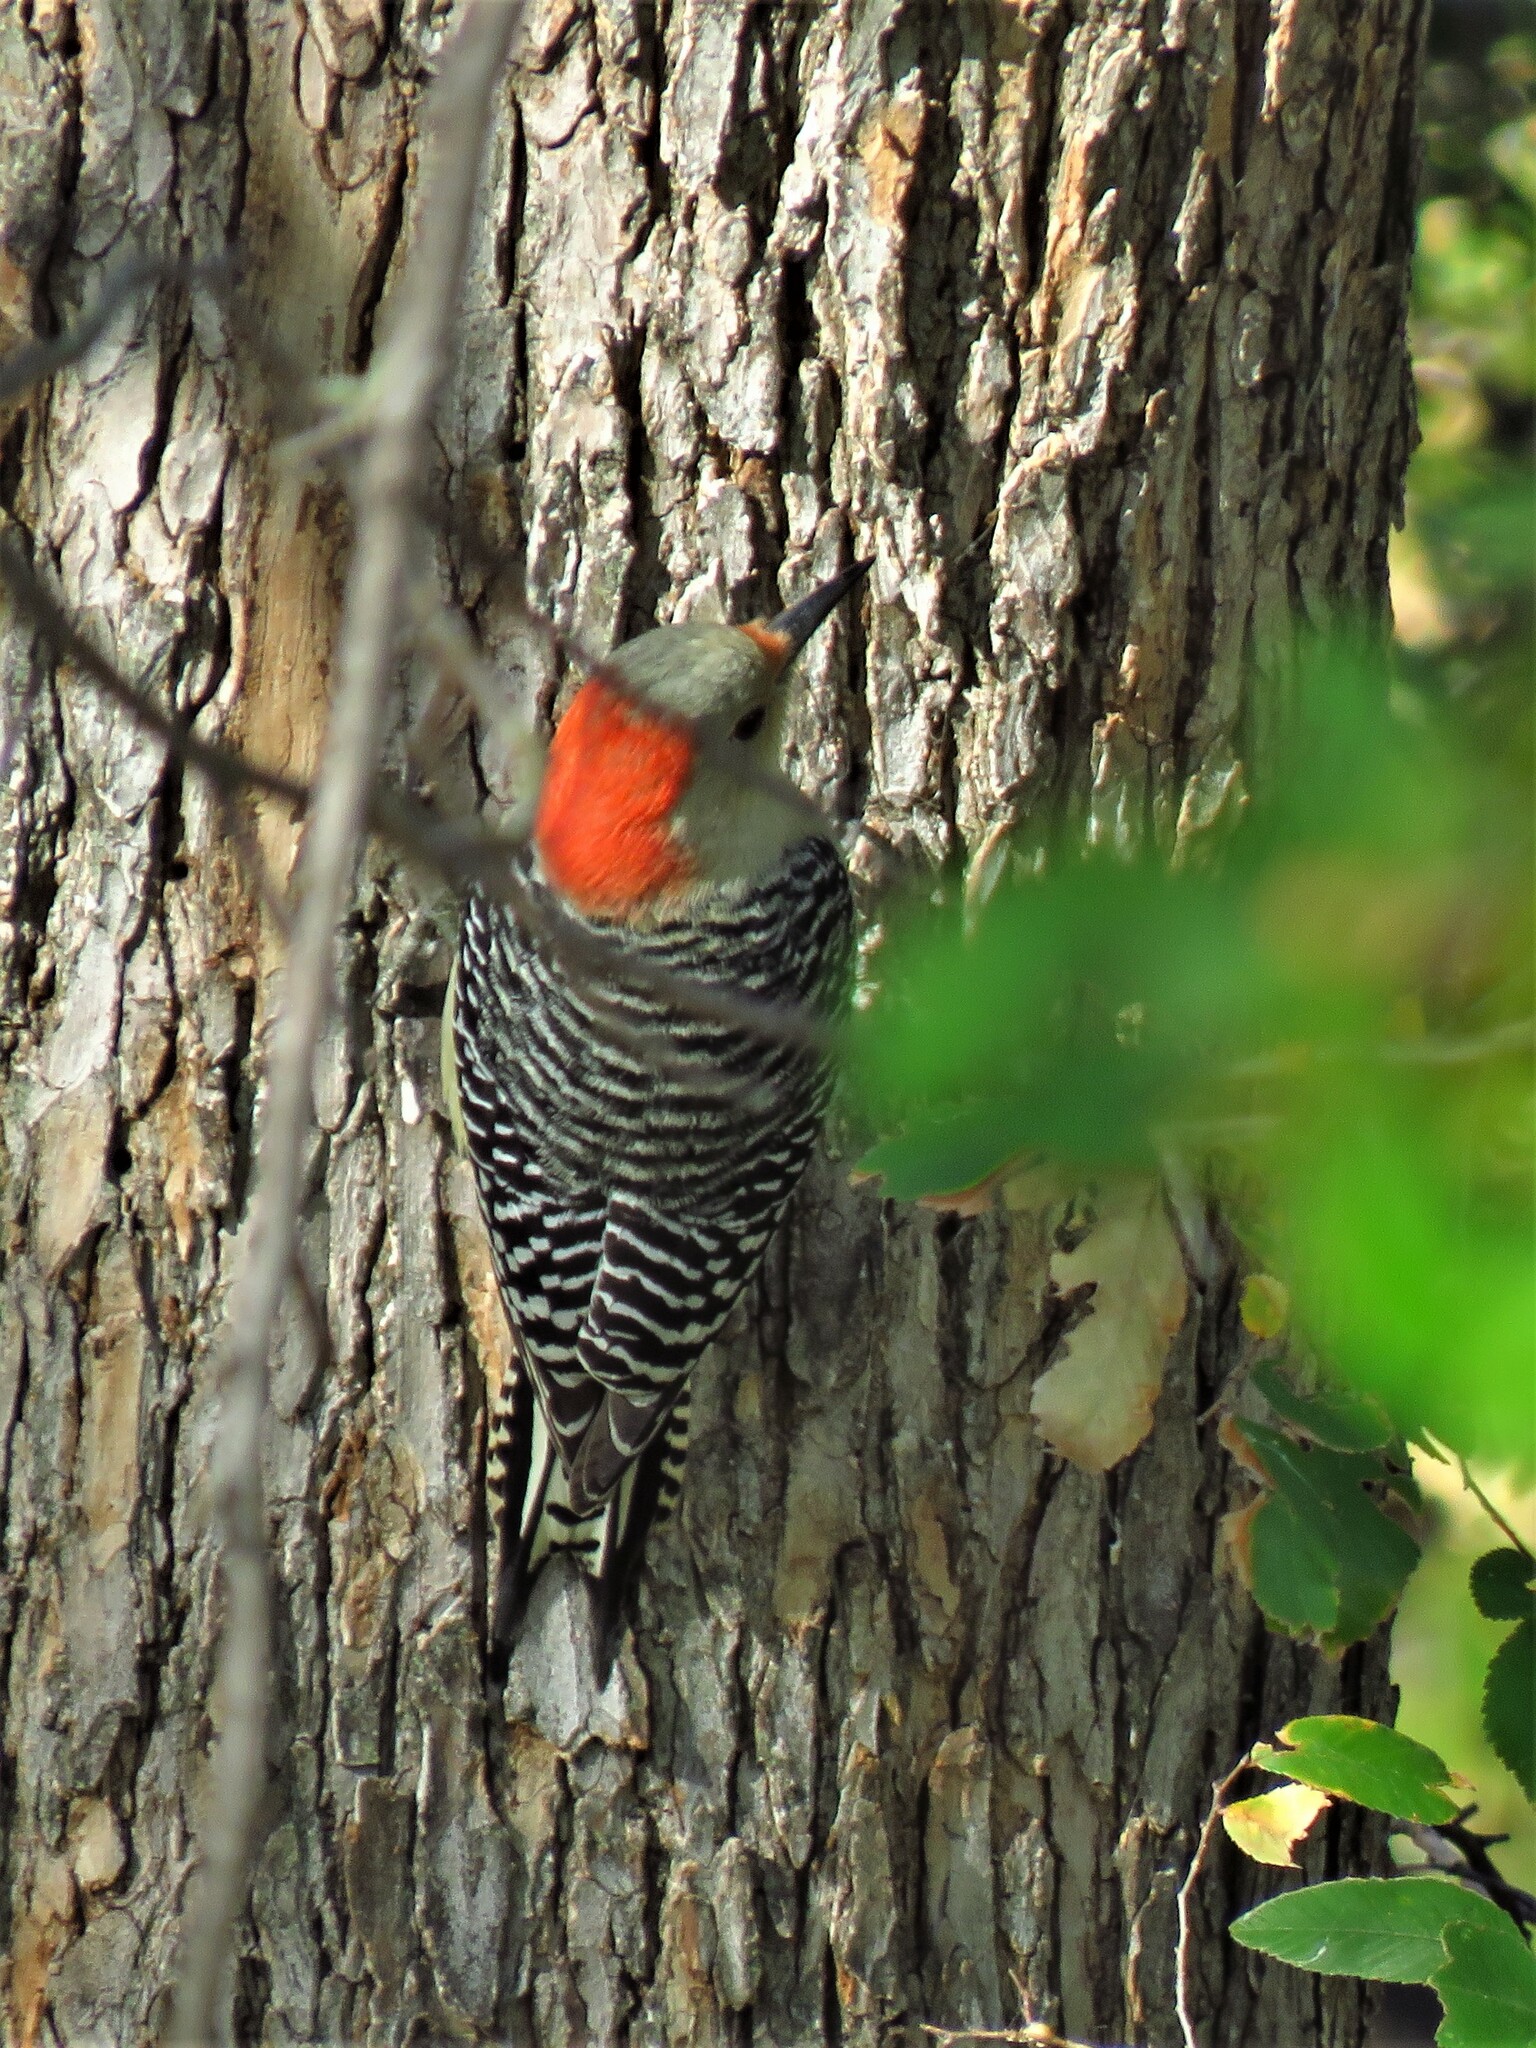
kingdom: Animalia
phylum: Chordata
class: Aves
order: Piciformes
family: Picidae
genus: Melanerpes
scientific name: Melanerpes carolinus
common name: Red-bellied woodpecker
